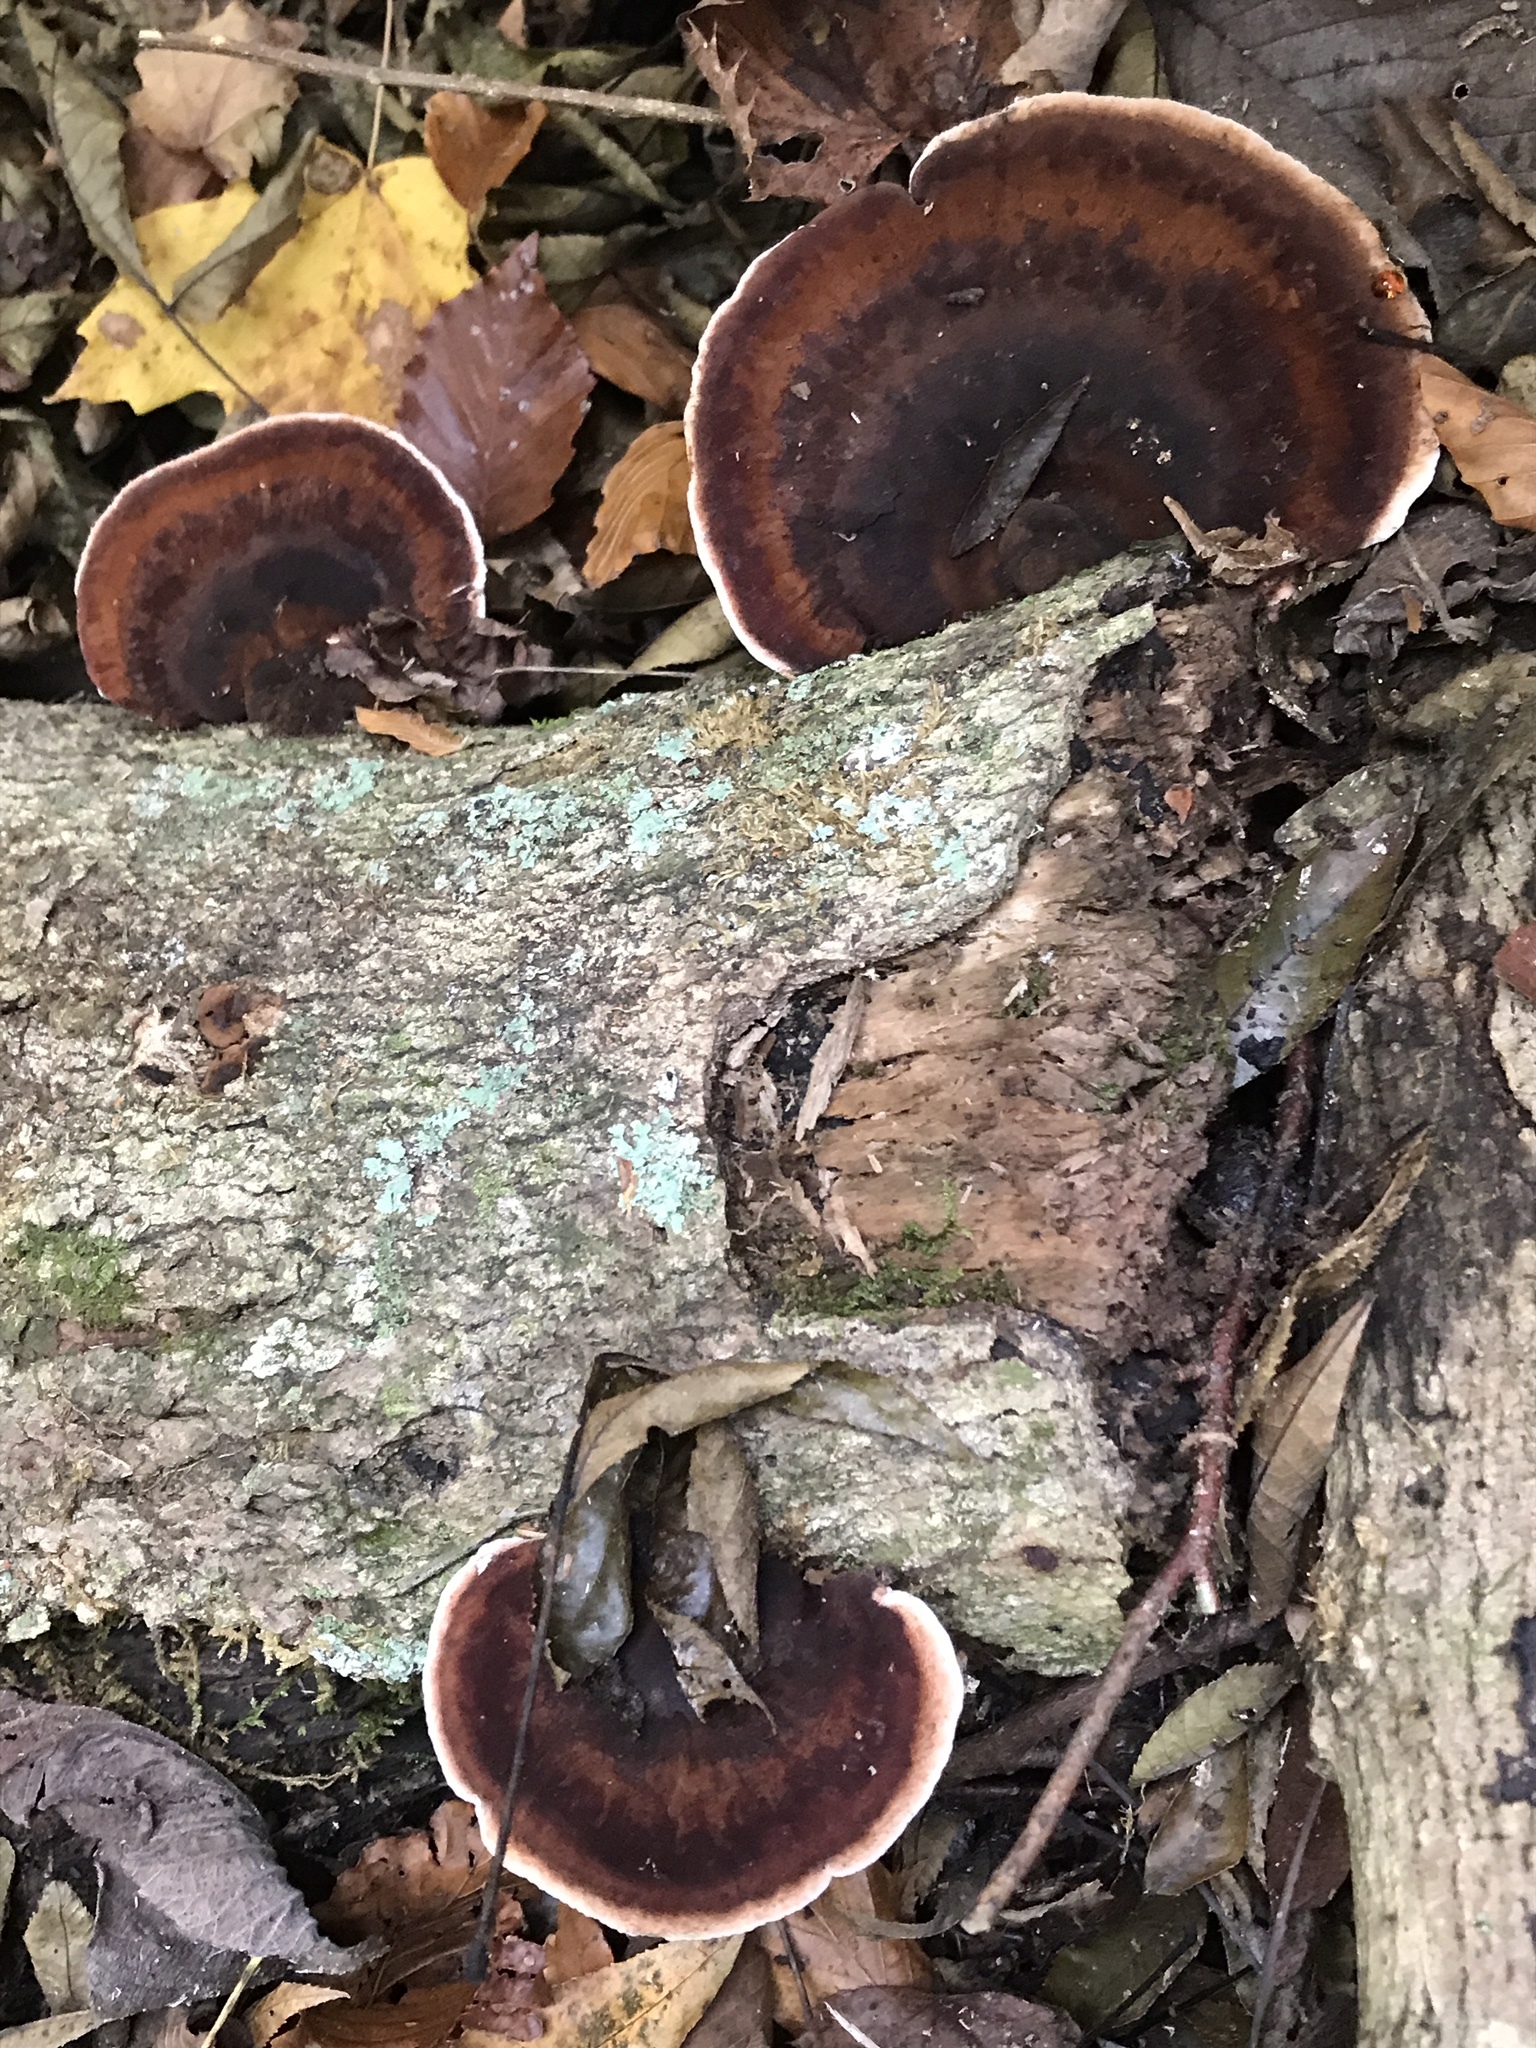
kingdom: Fungi
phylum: Basidiomycota
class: Agaricomycetes
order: Polyporales
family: Ischnodermataceae
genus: Ischnoderma
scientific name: Ischnoderma resinosum
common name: Resinous polypore
